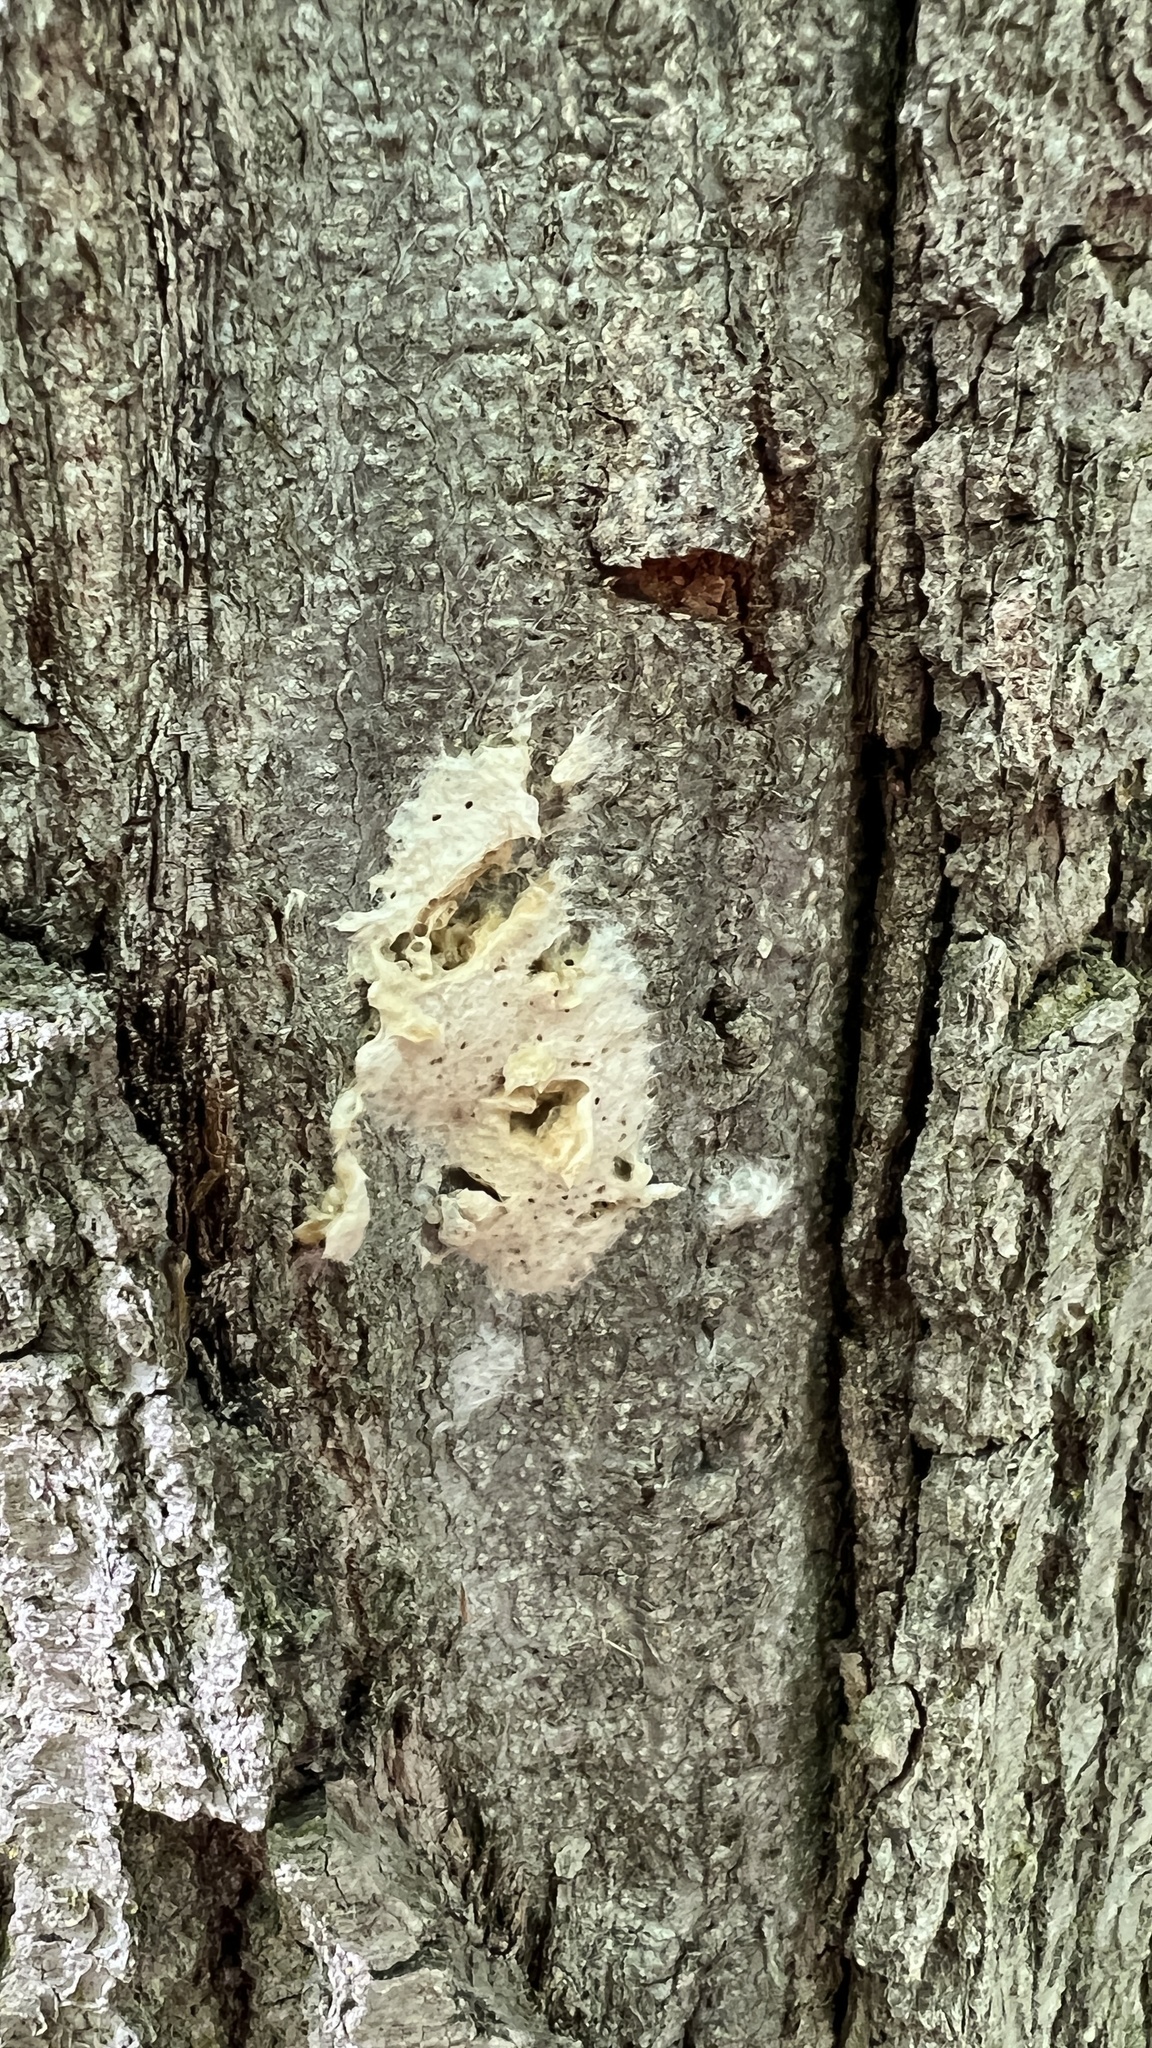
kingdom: Animalia
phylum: Arthropoda
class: Insecta
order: Lepidoptera
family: Erebidae
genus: Lymantria
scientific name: Lymantria dispar
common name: Gypsy moth
